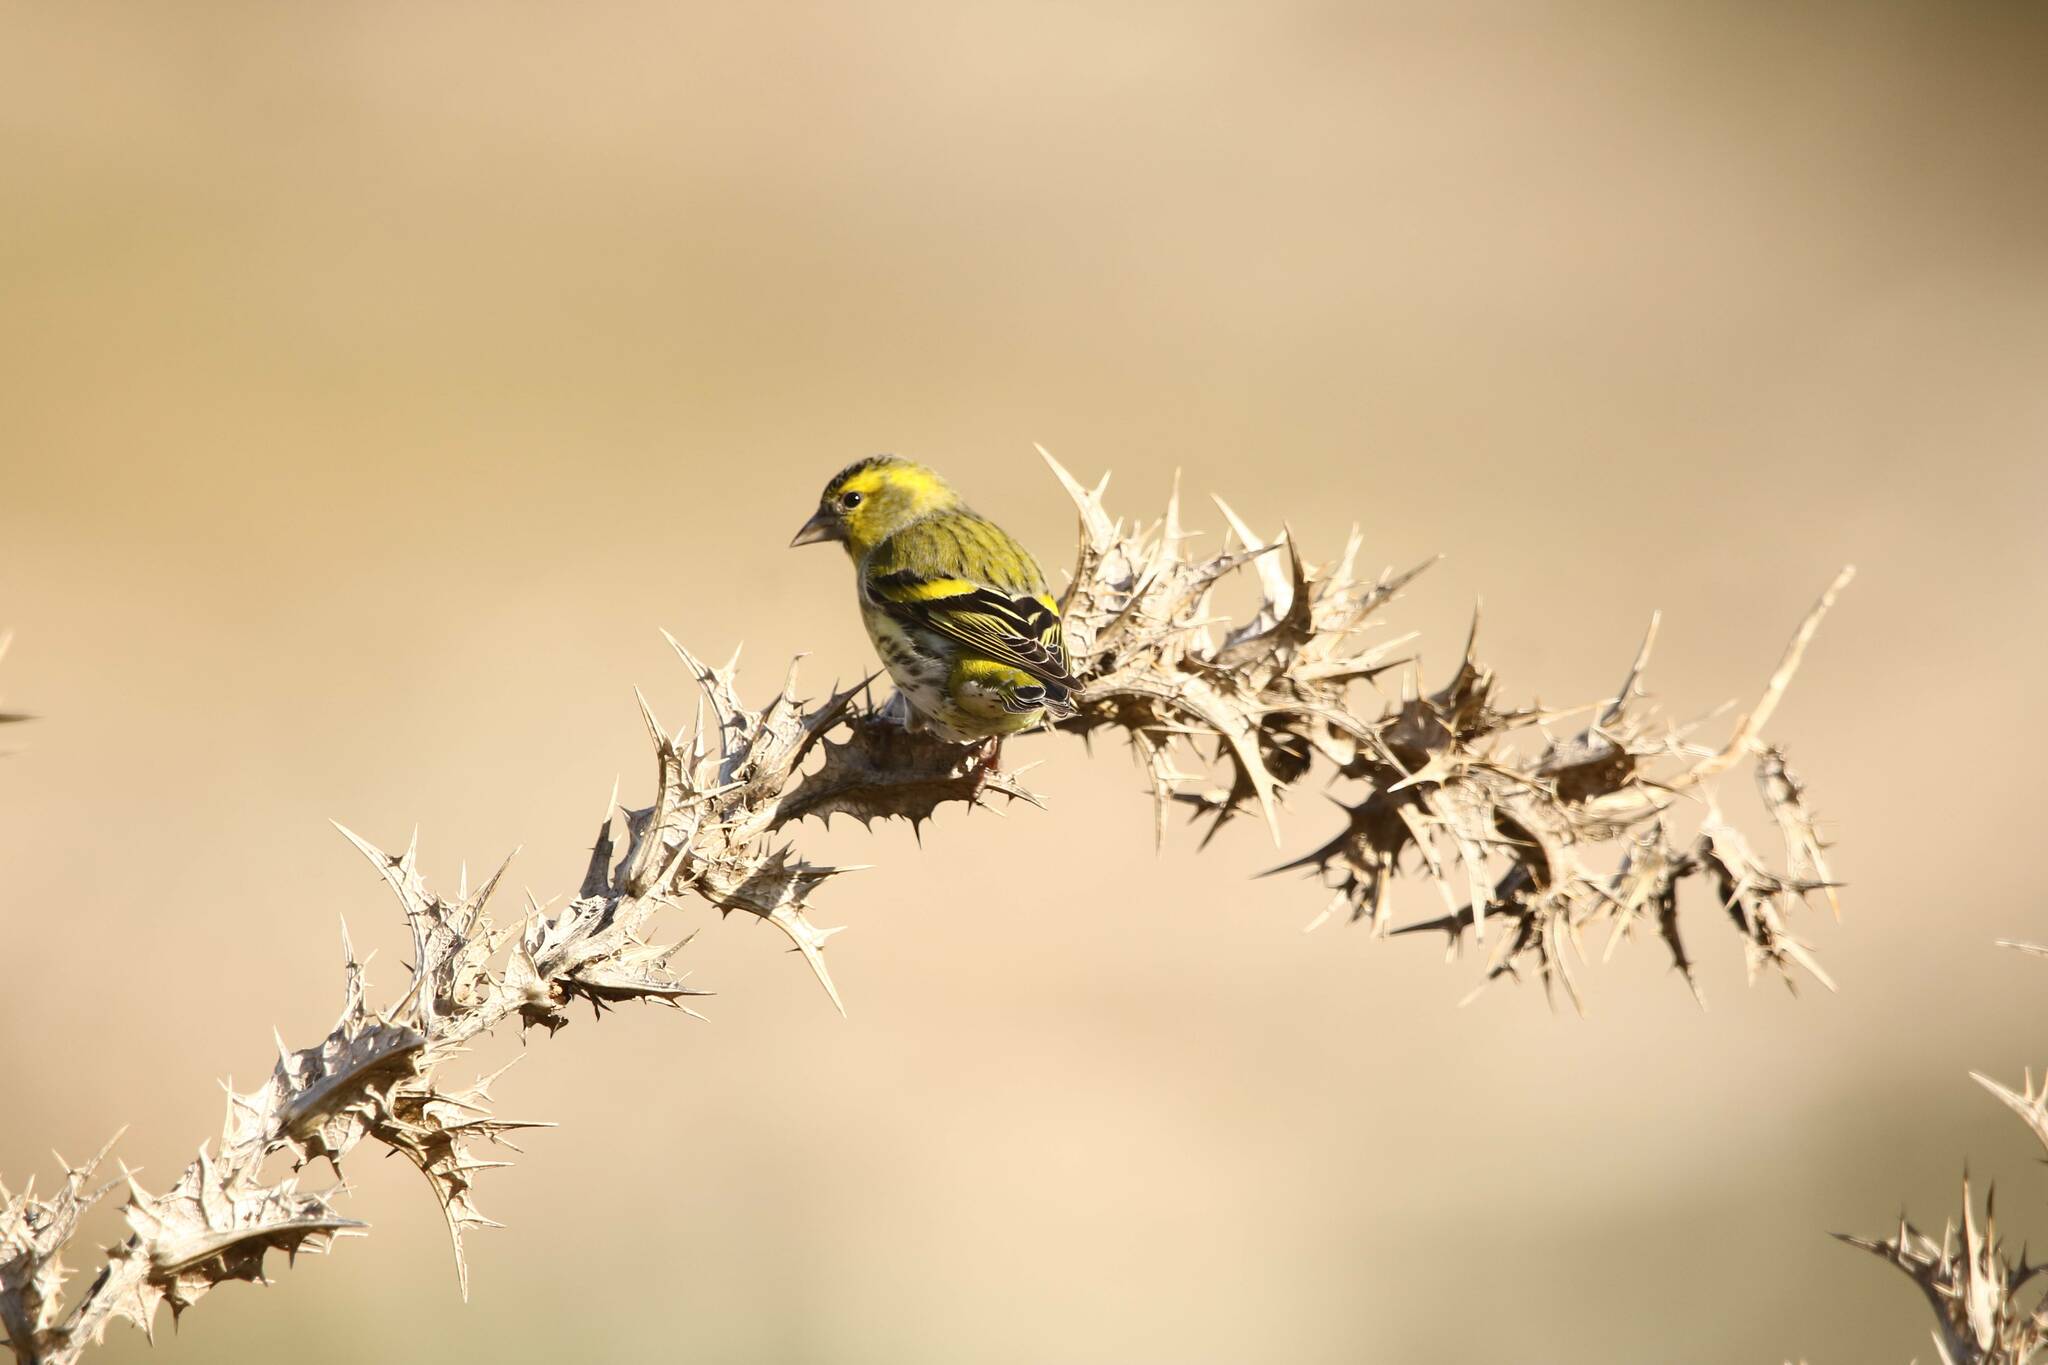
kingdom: Animalia
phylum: Chordata
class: Aves
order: Passeriformes
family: Fringillidae
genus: Spinus
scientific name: Spinus spinus
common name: Eurasian siskin
